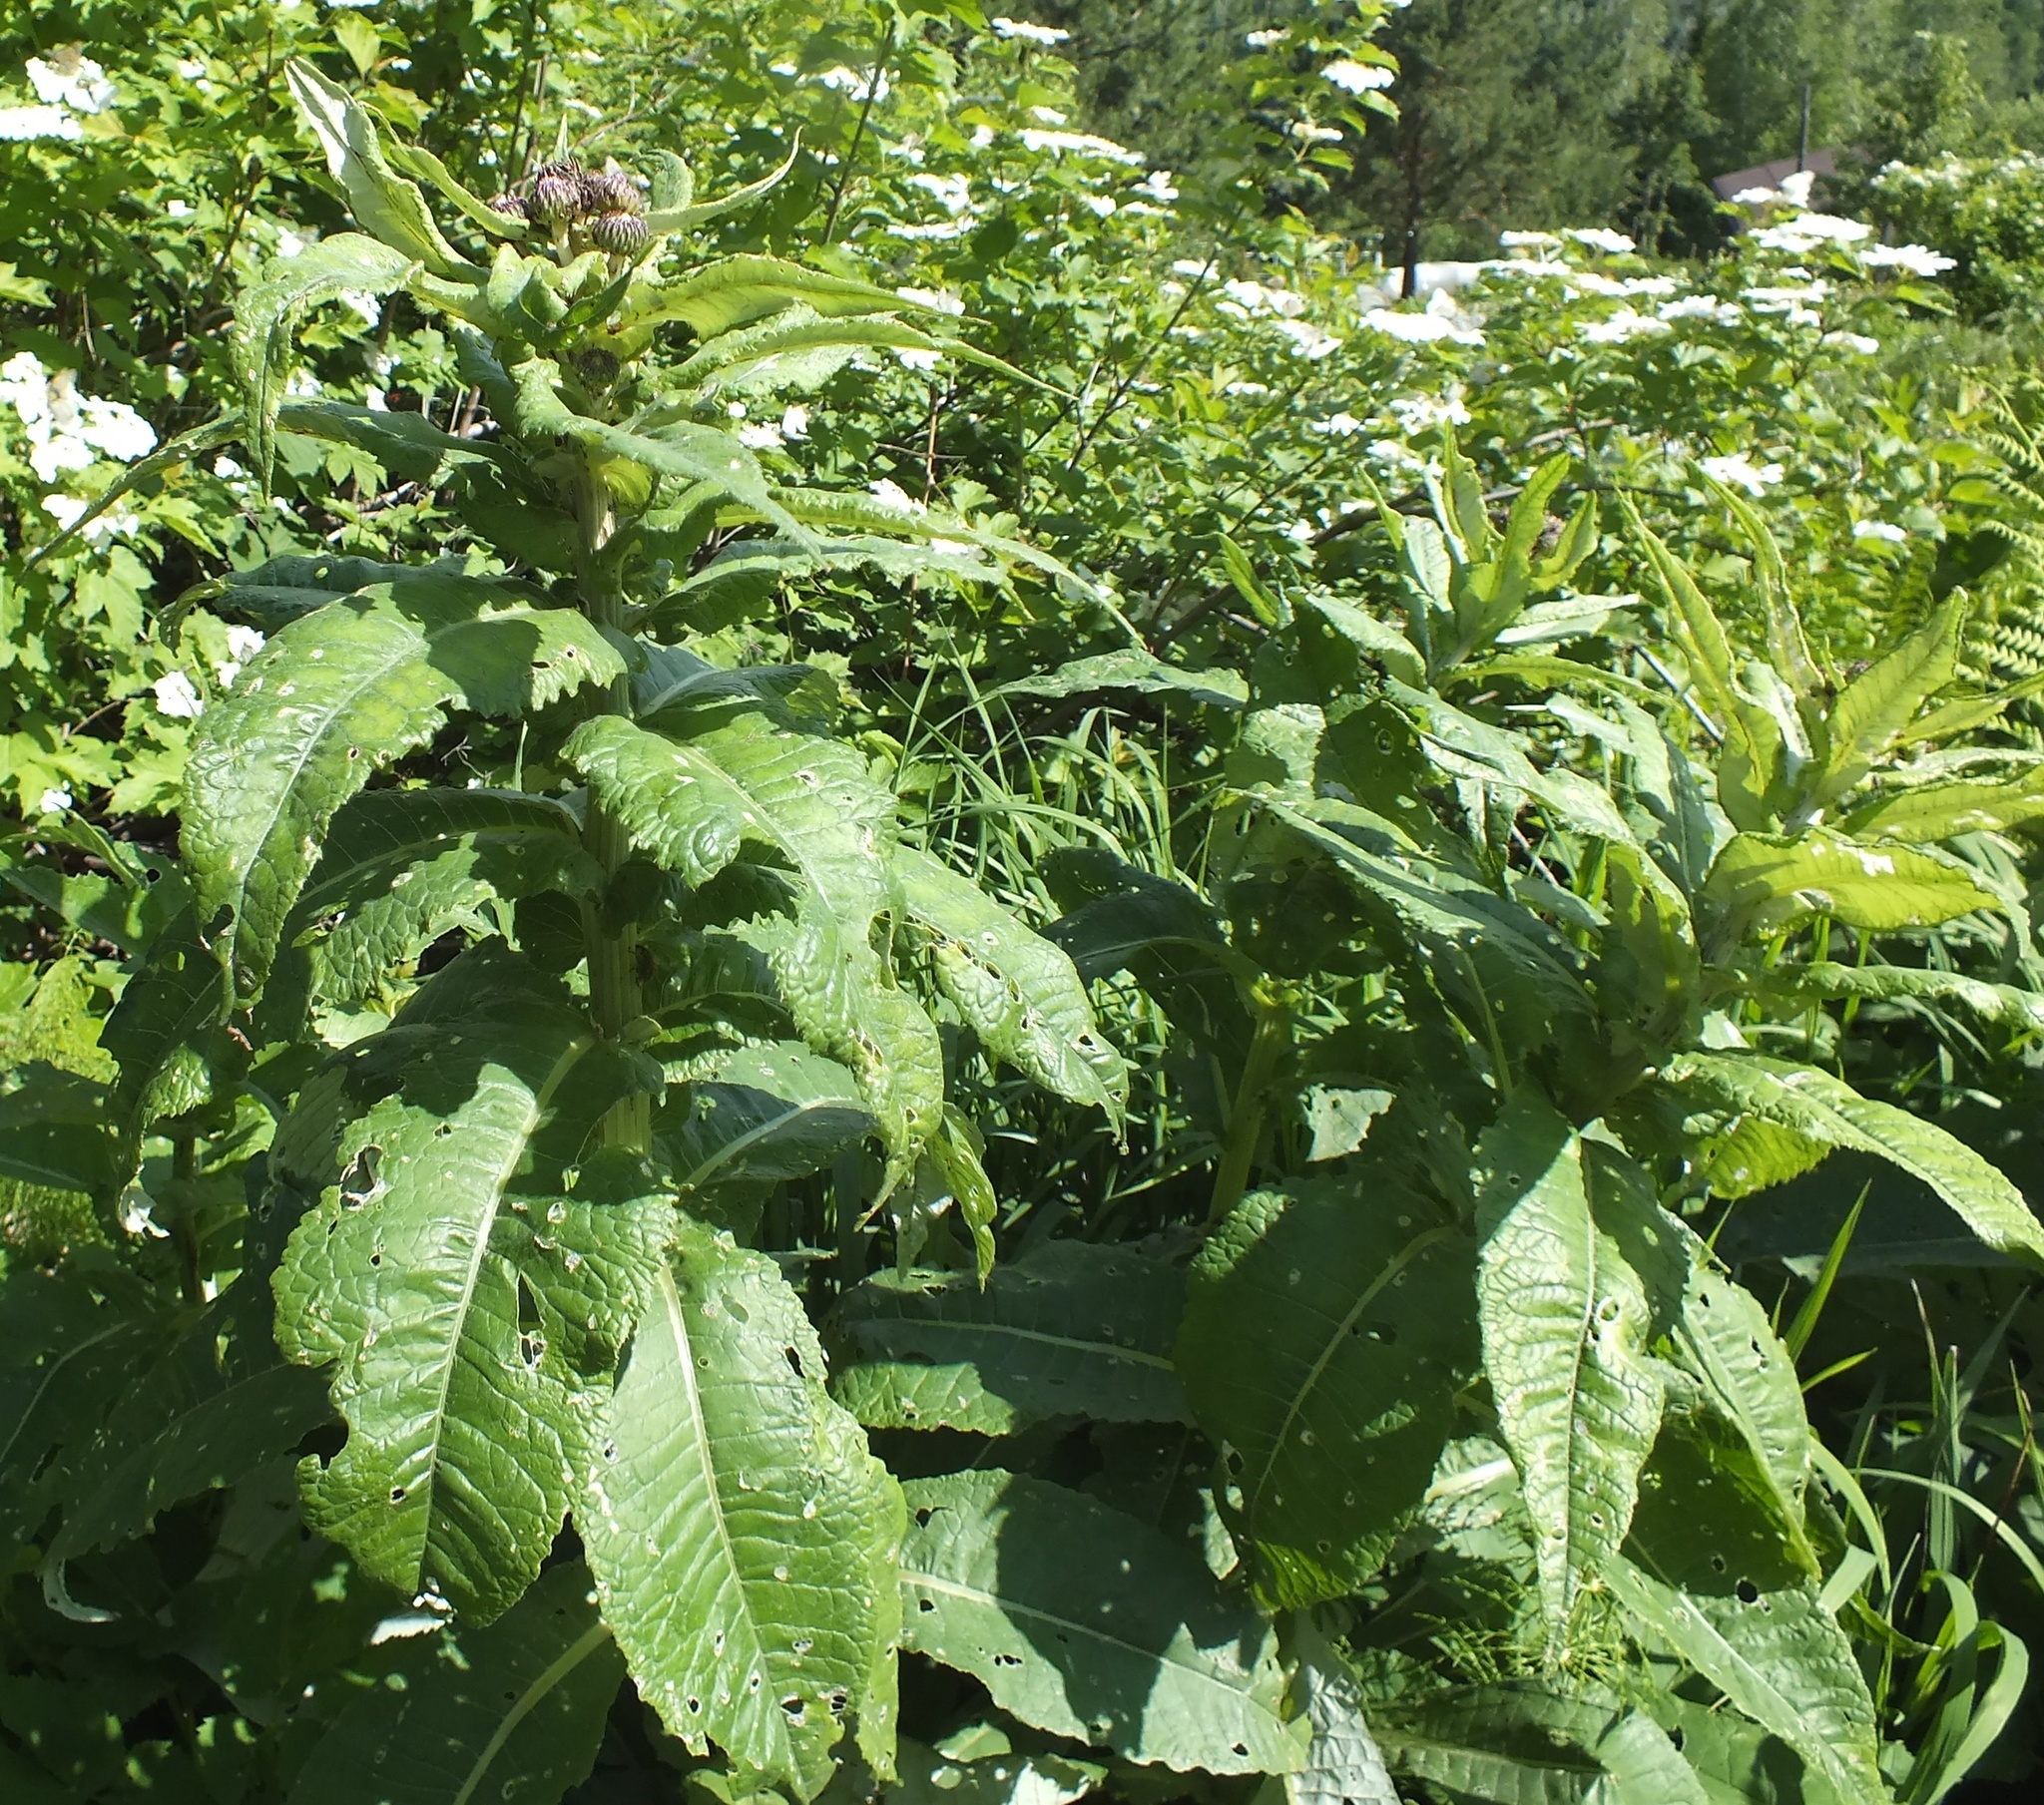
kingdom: Plantae
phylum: Tracheophyta
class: Magnoliopsida
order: Asterales
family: Asteraceae
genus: Cirsium
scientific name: Cirsium helenioides
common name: Melancholy thistle
